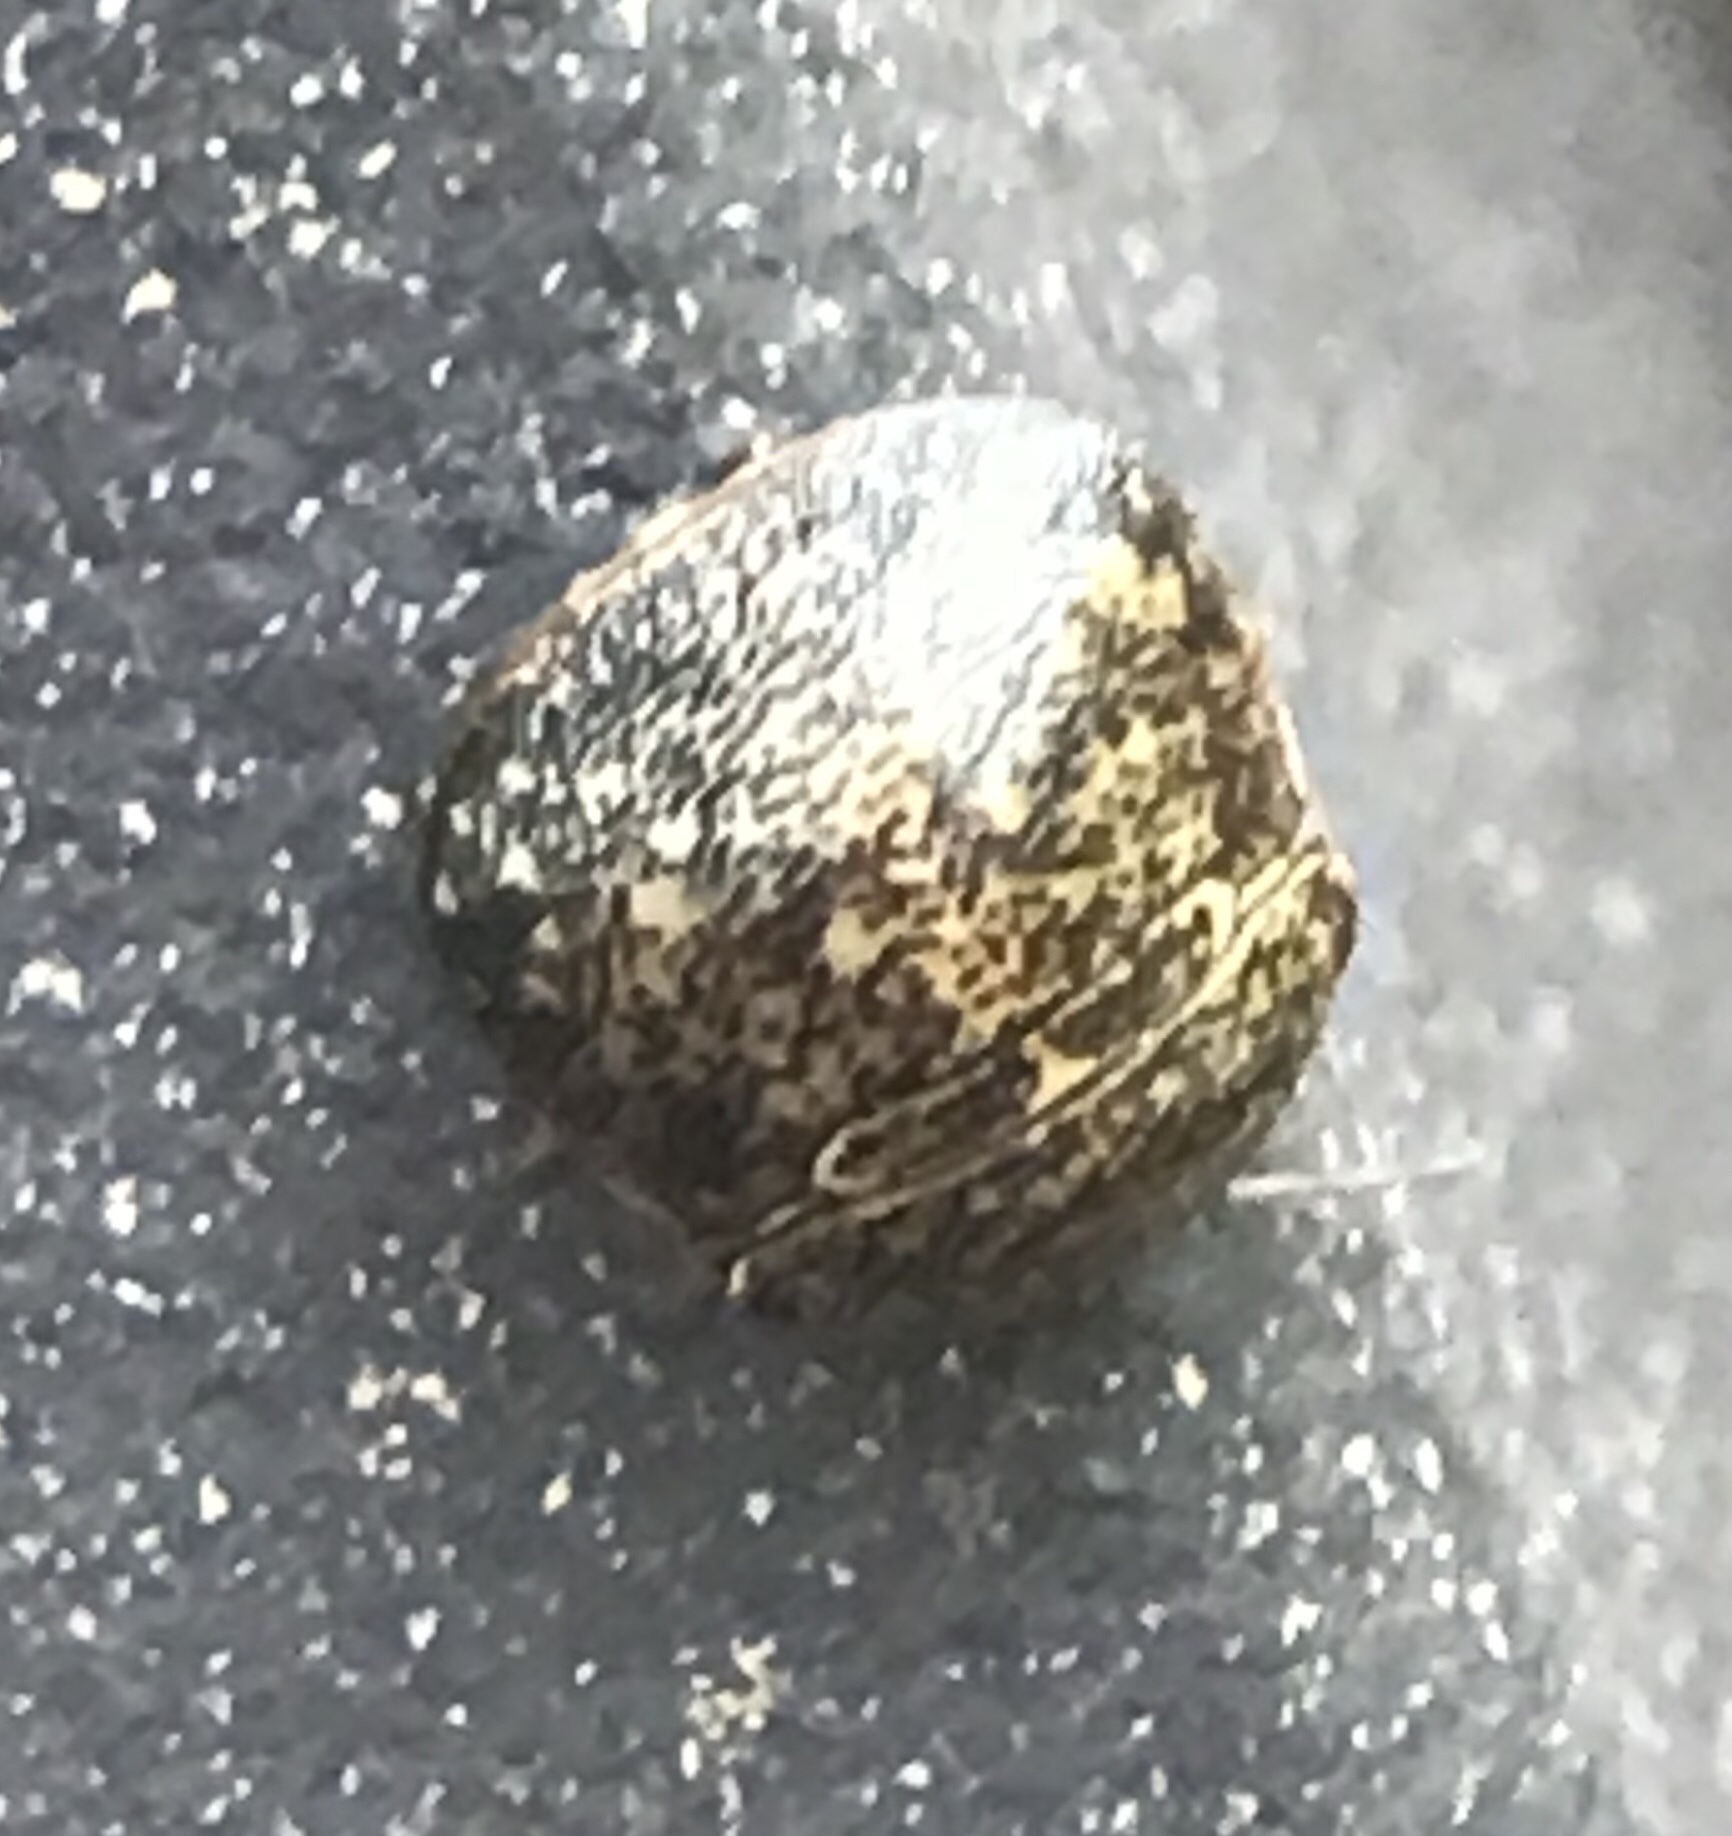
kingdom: Animalia
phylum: Arthropoda
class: Insecta
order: Hemiptera
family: Plataspidae
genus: Megacopta
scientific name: Megacopta cribraria
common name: Bean plataspid
